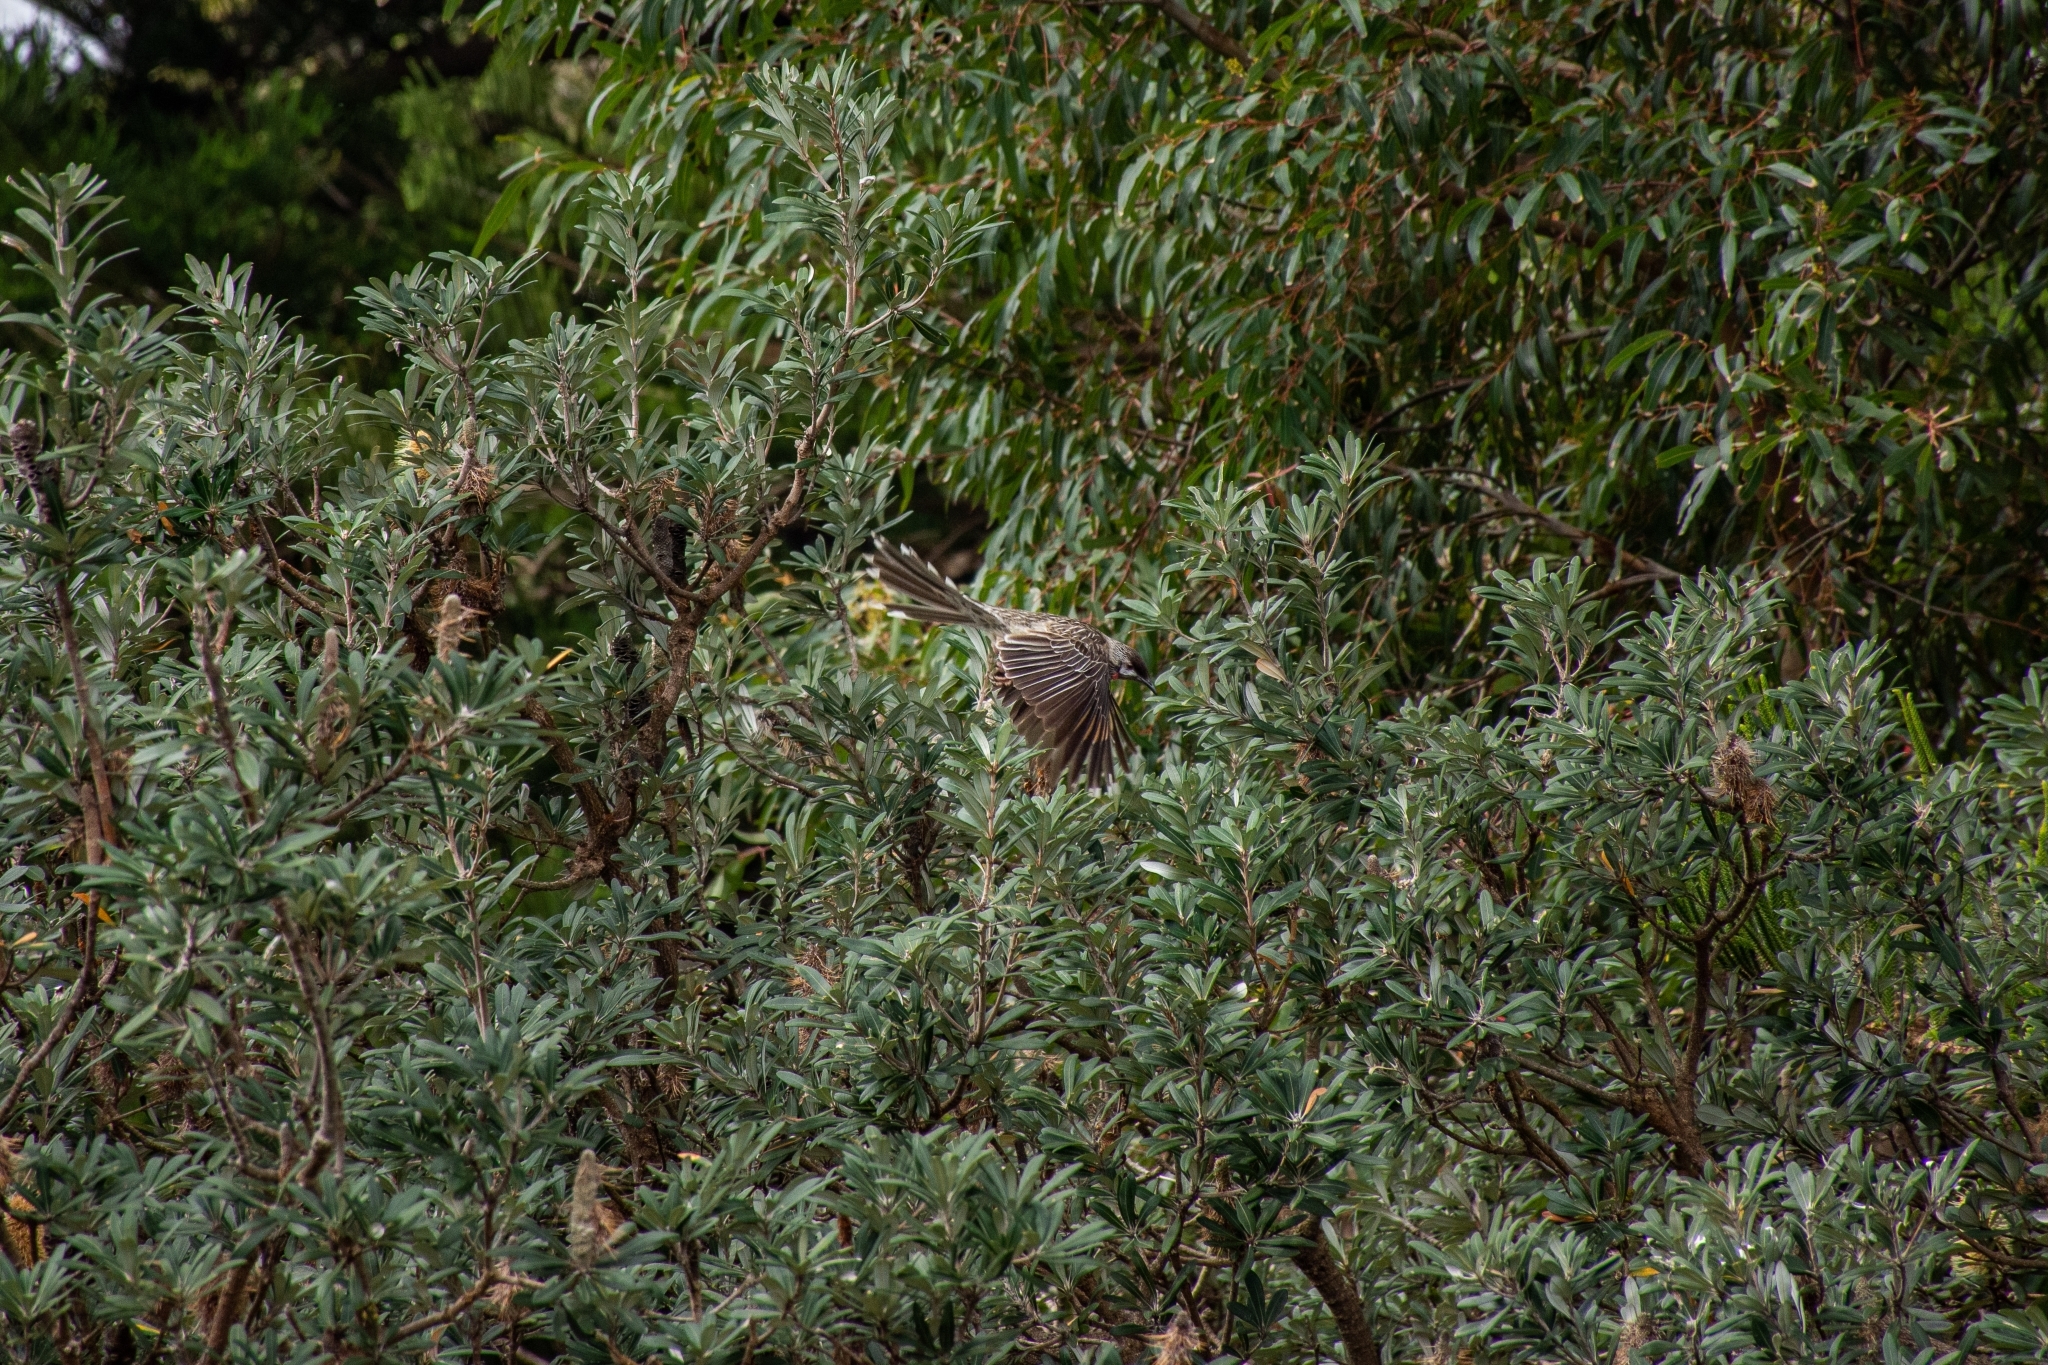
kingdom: Animalia
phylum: Chordata
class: Aves
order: Passeriformes
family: Meliphagidae
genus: Anthochaera
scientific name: Anthochaera carunculata
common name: Red wattlebird
